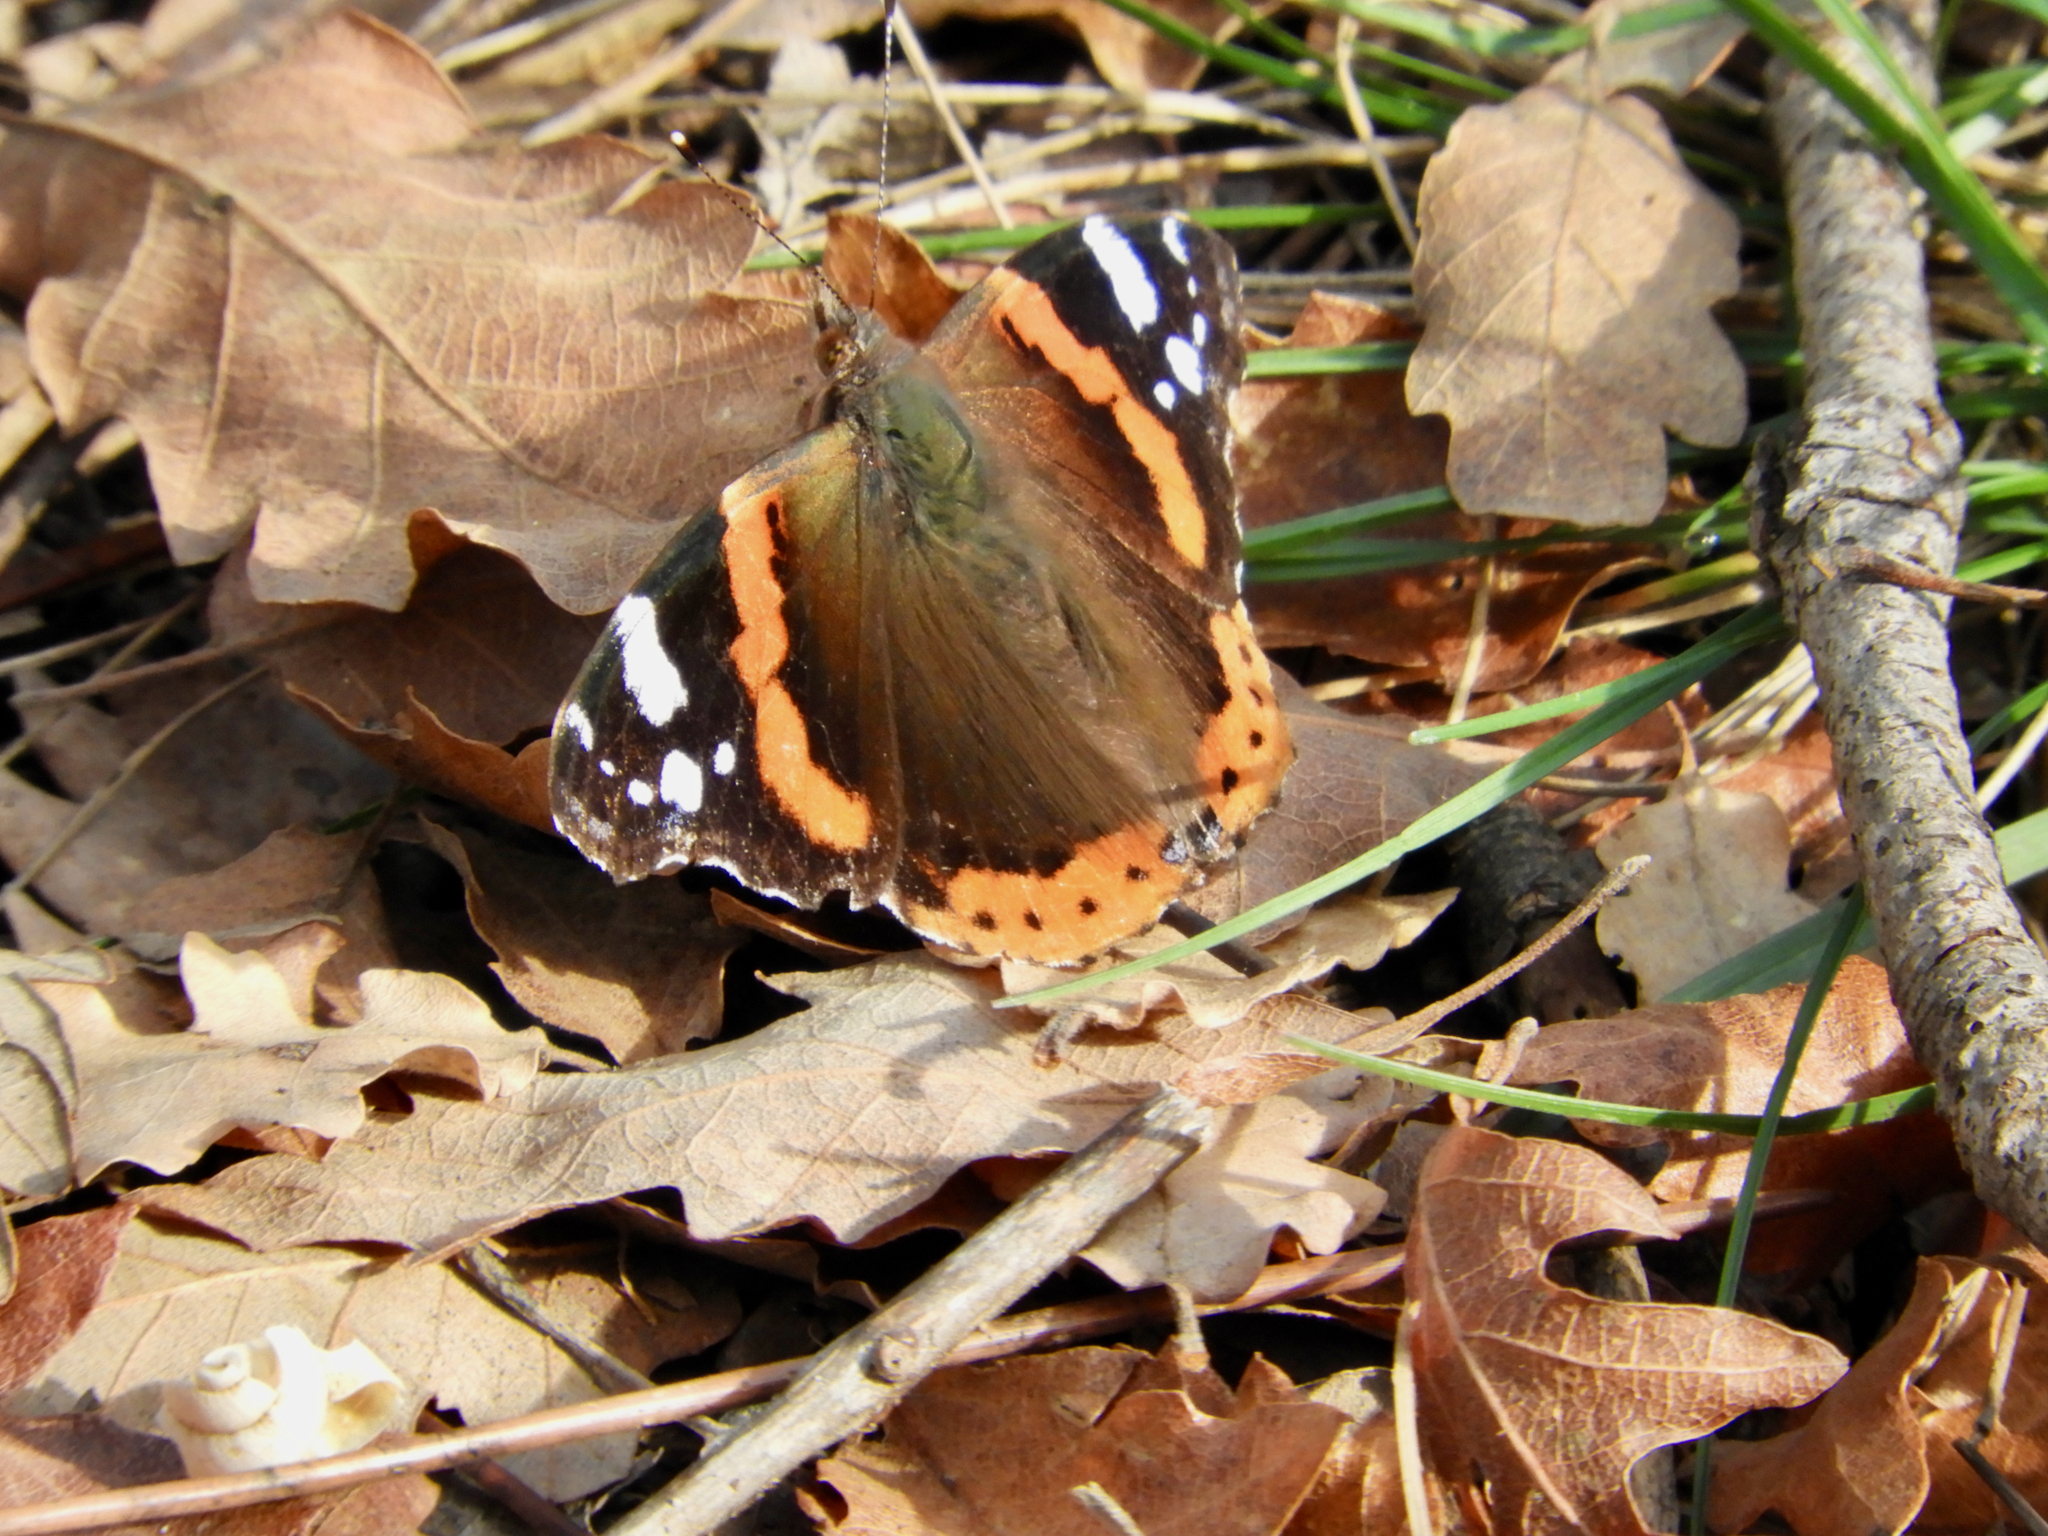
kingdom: Animalia
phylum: Arthropoda
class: Insecta
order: Lepidoptera
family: Nymphalidae
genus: Vanessa
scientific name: Vanessa atalanta
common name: Red admiral
